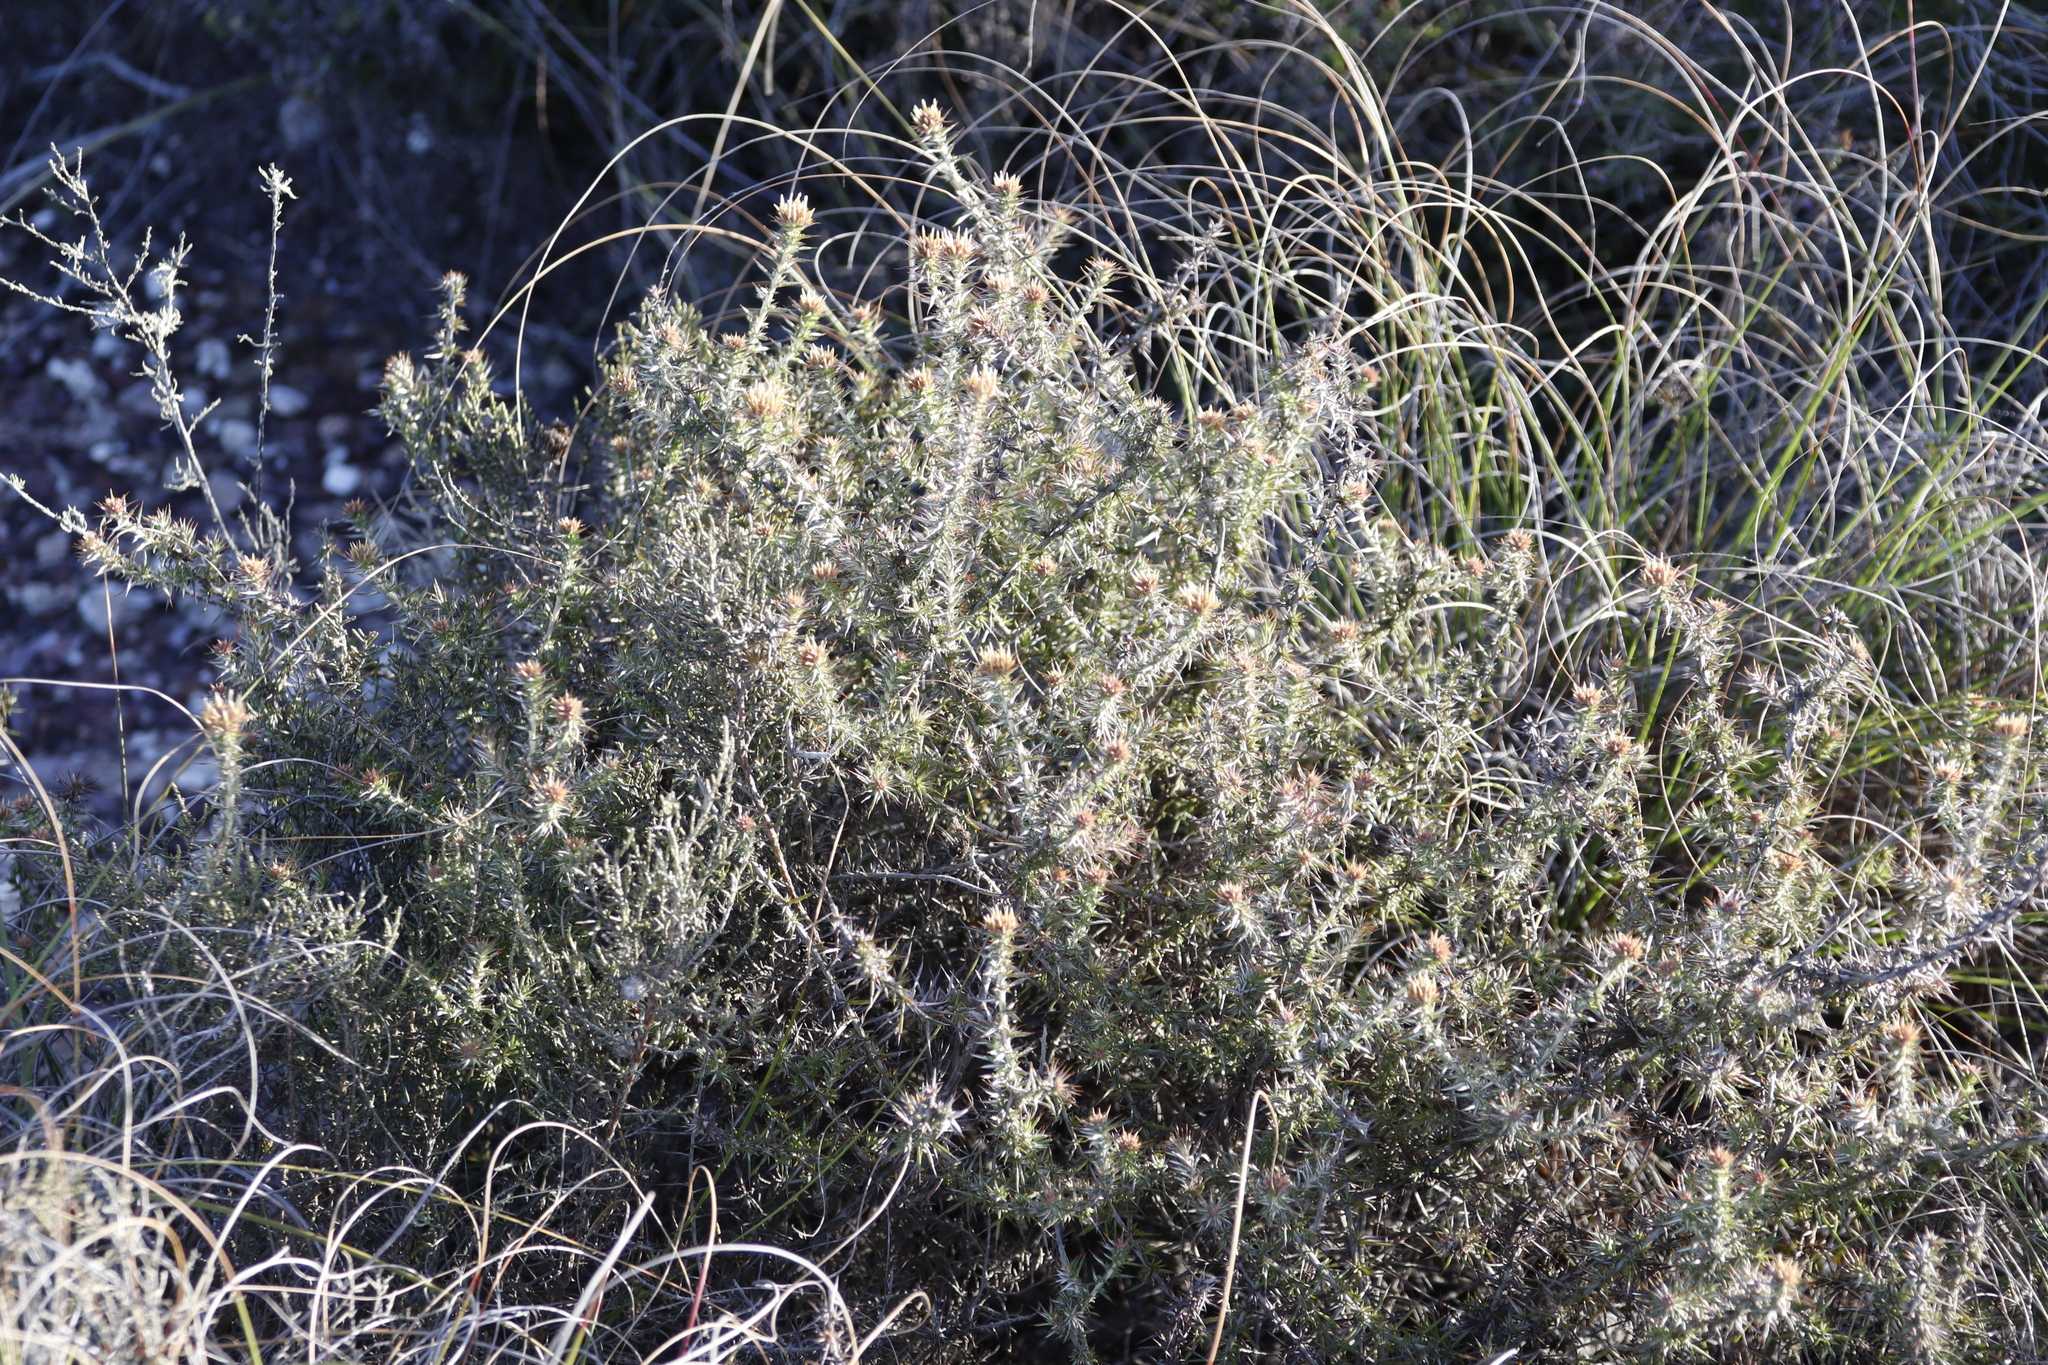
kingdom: Plantae
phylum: Tracheophyta
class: Magnoliopsida
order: Asterales
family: Asteraceae
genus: Metalasia
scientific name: Metalasia acuta
